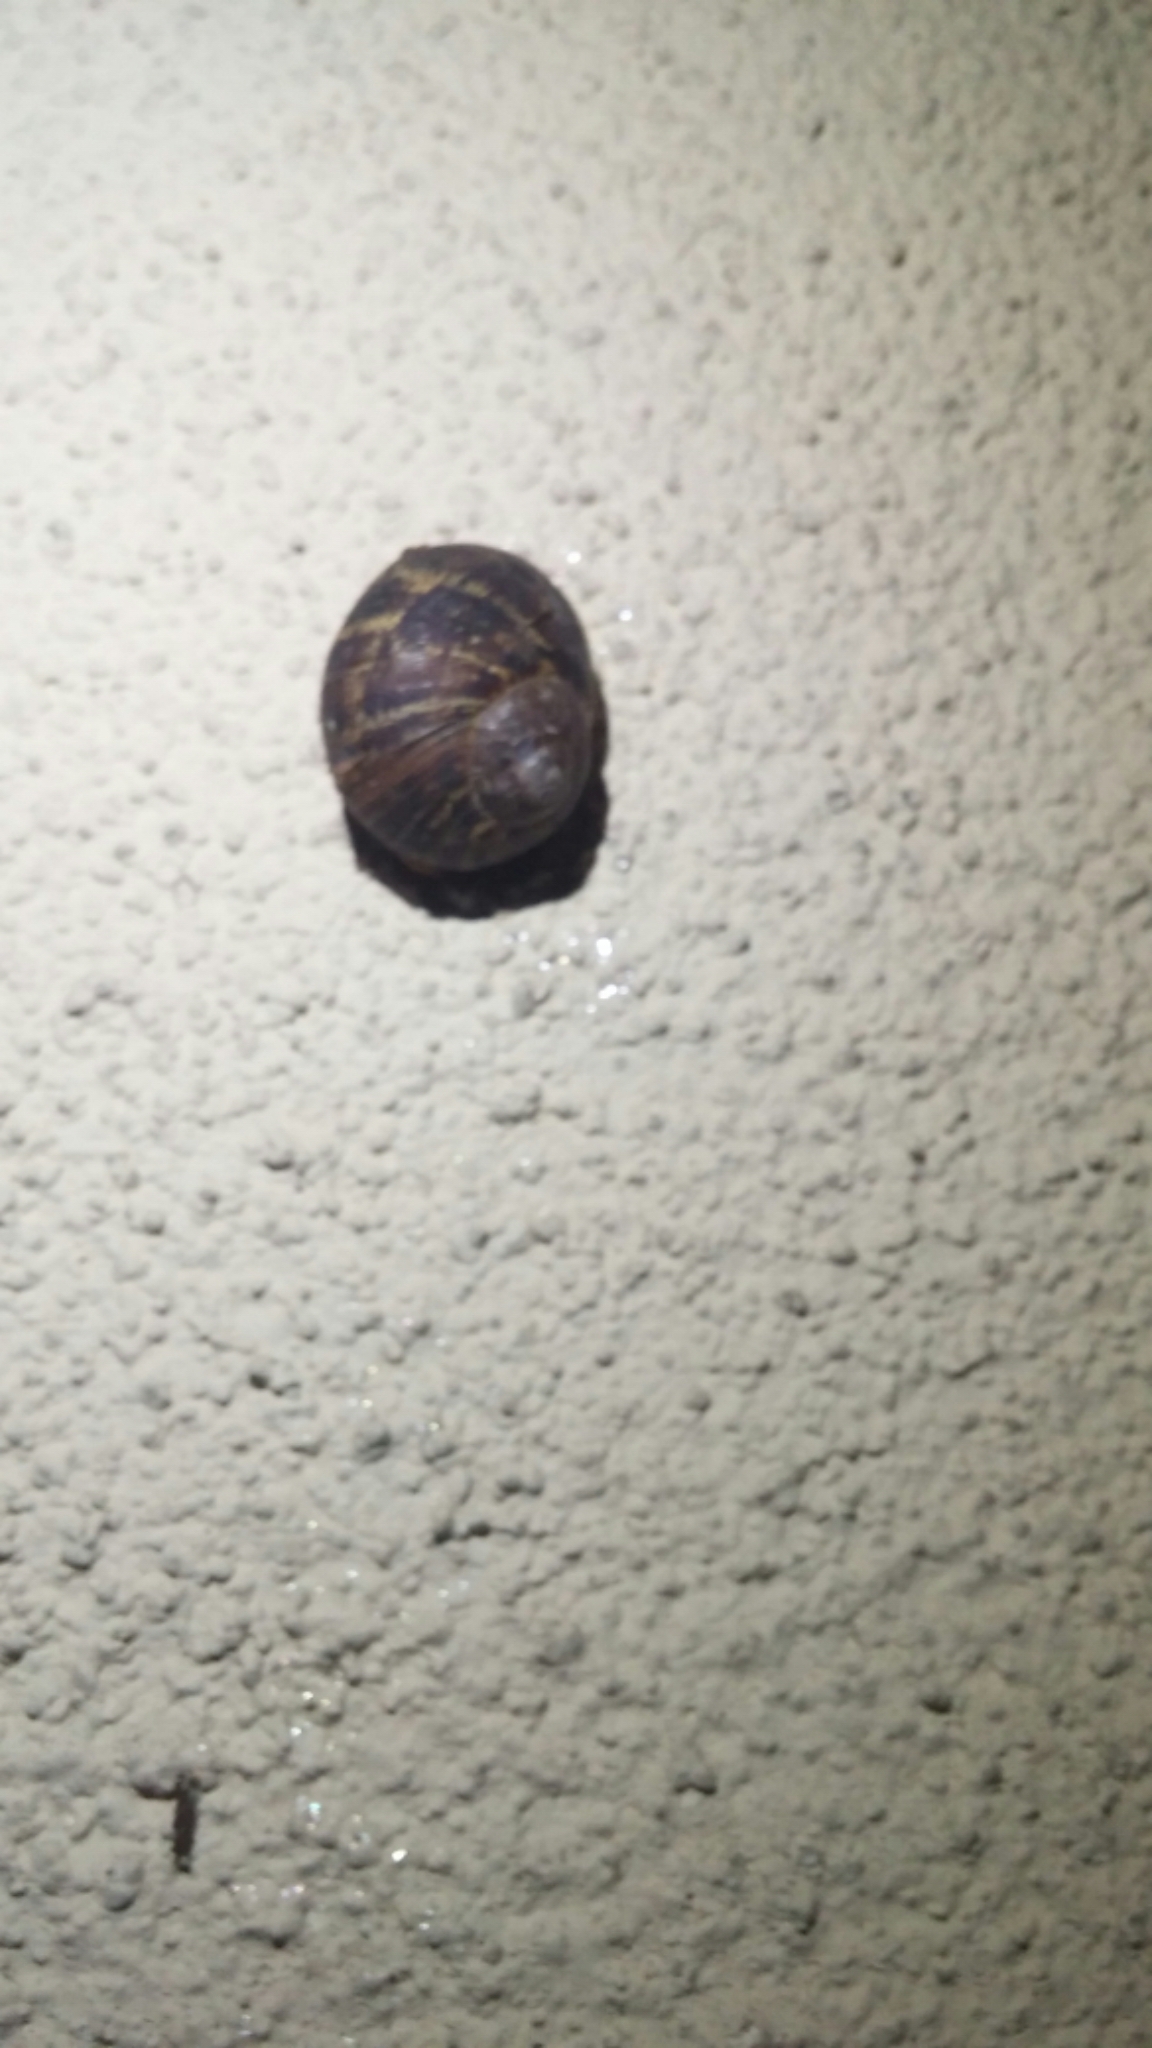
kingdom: Animalia
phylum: Mollusca
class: Gastropoda
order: Stylommatophora
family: Helicidae
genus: Cornu
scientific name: Cornu aspersum
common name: Brown garden snail
